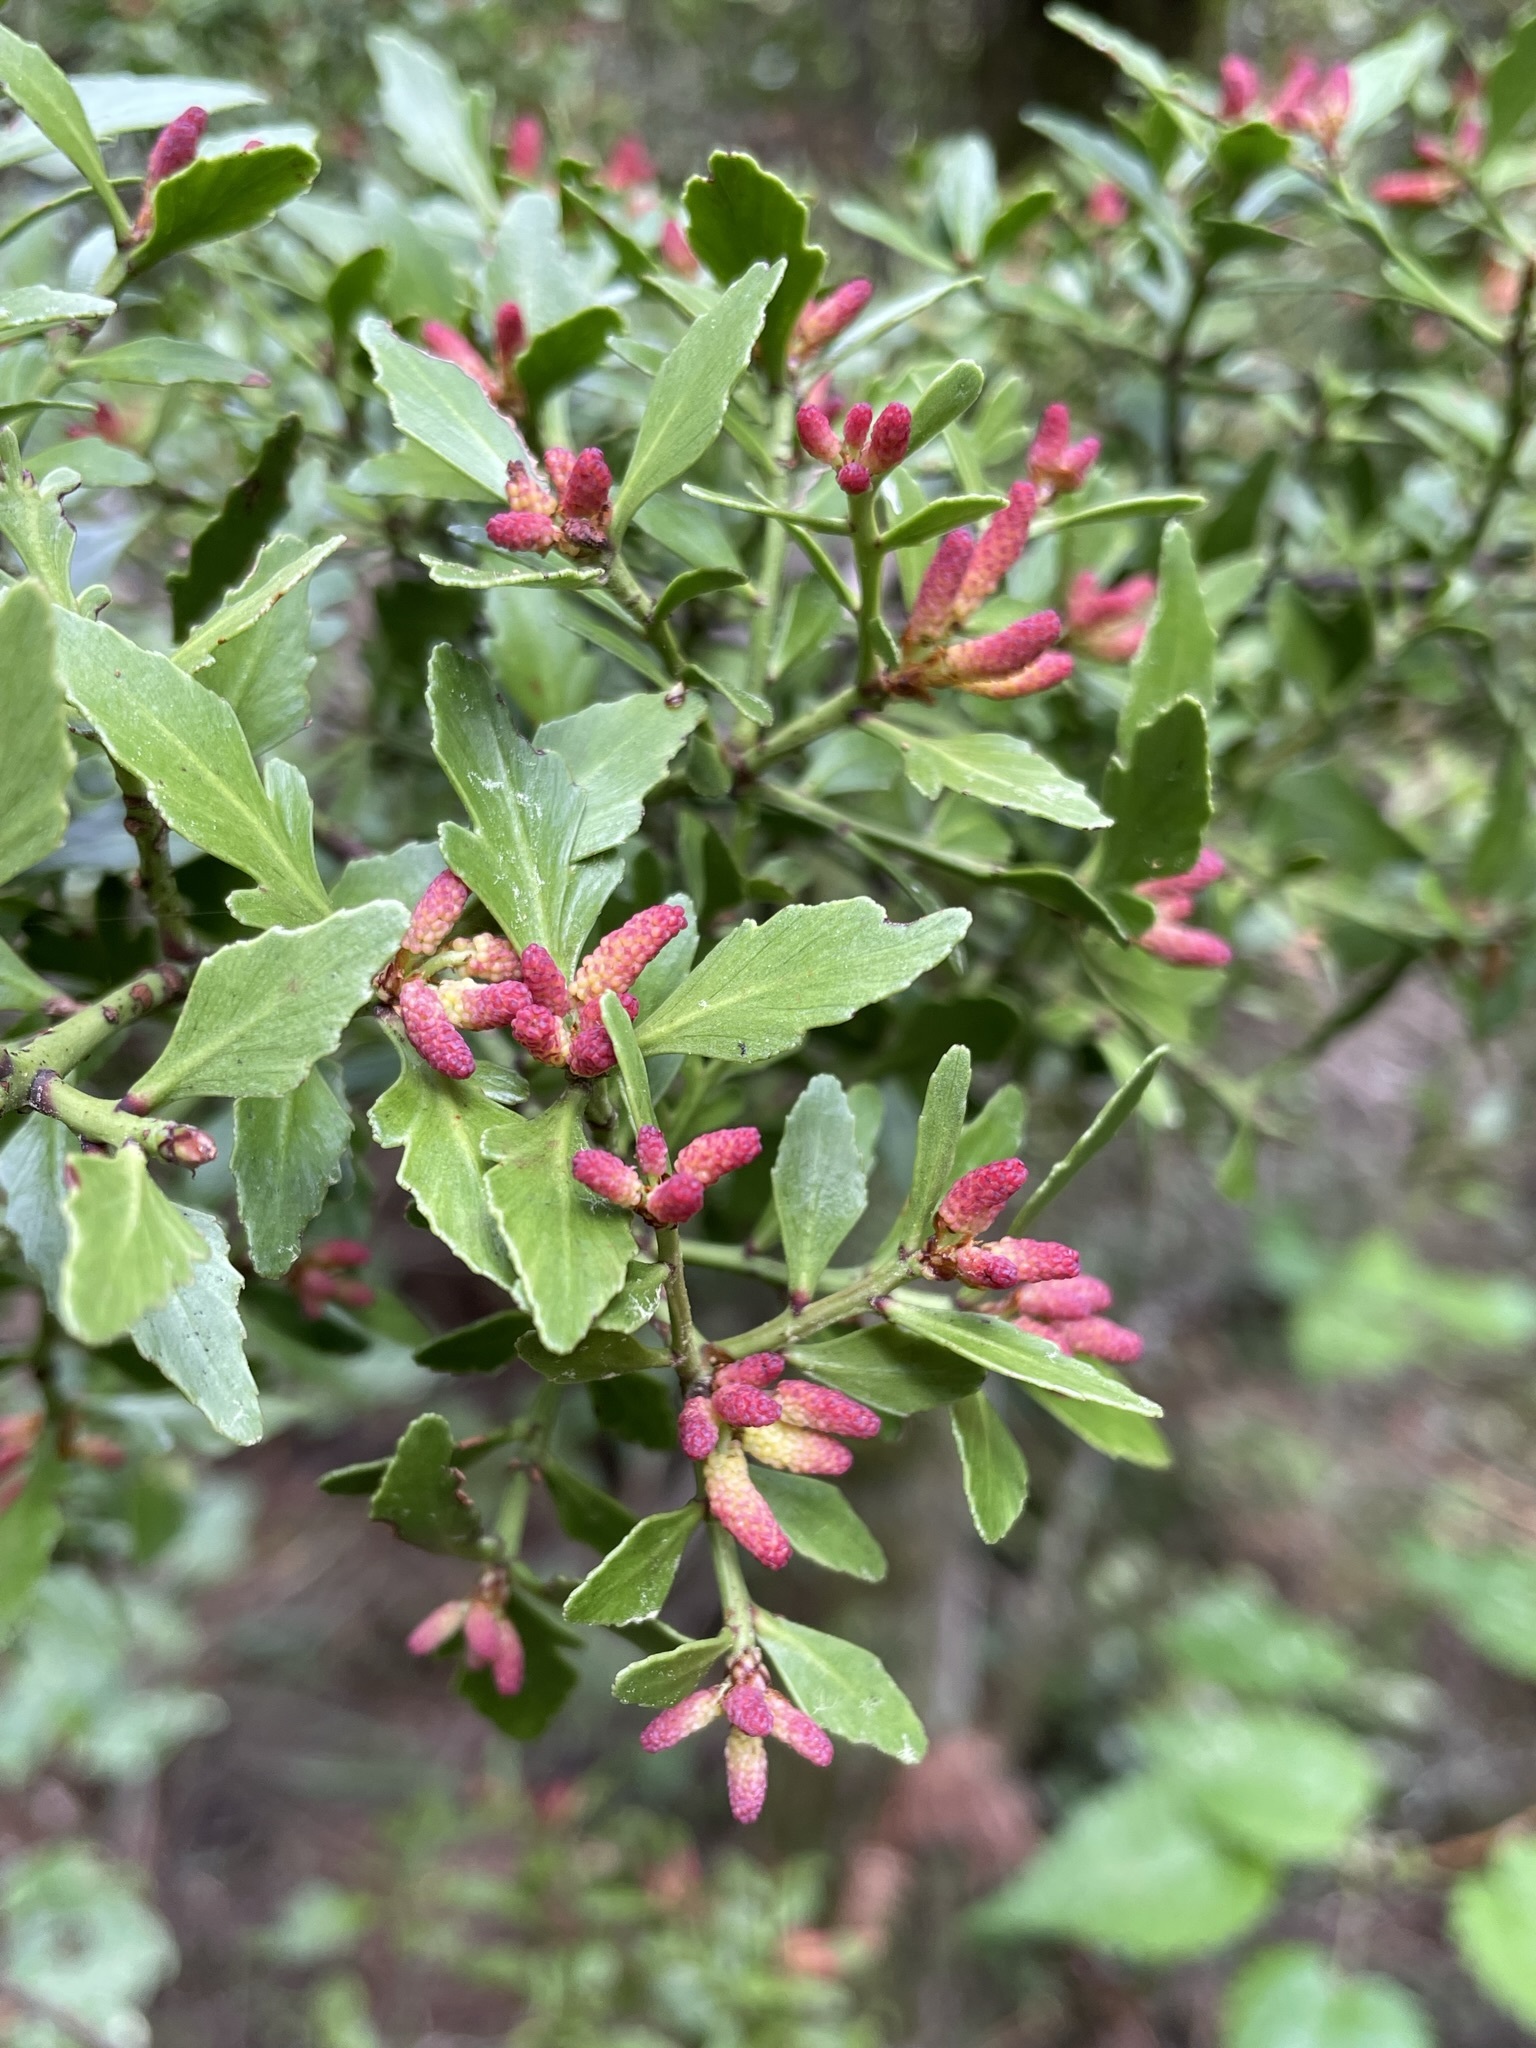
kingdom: Plantae
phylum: Tracheophyta
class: Pinopsida
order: Pinales
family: Phyllocladaceae
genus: Phyllocladus
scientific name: Phyllocladus trichomanoides
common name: Celery pine
